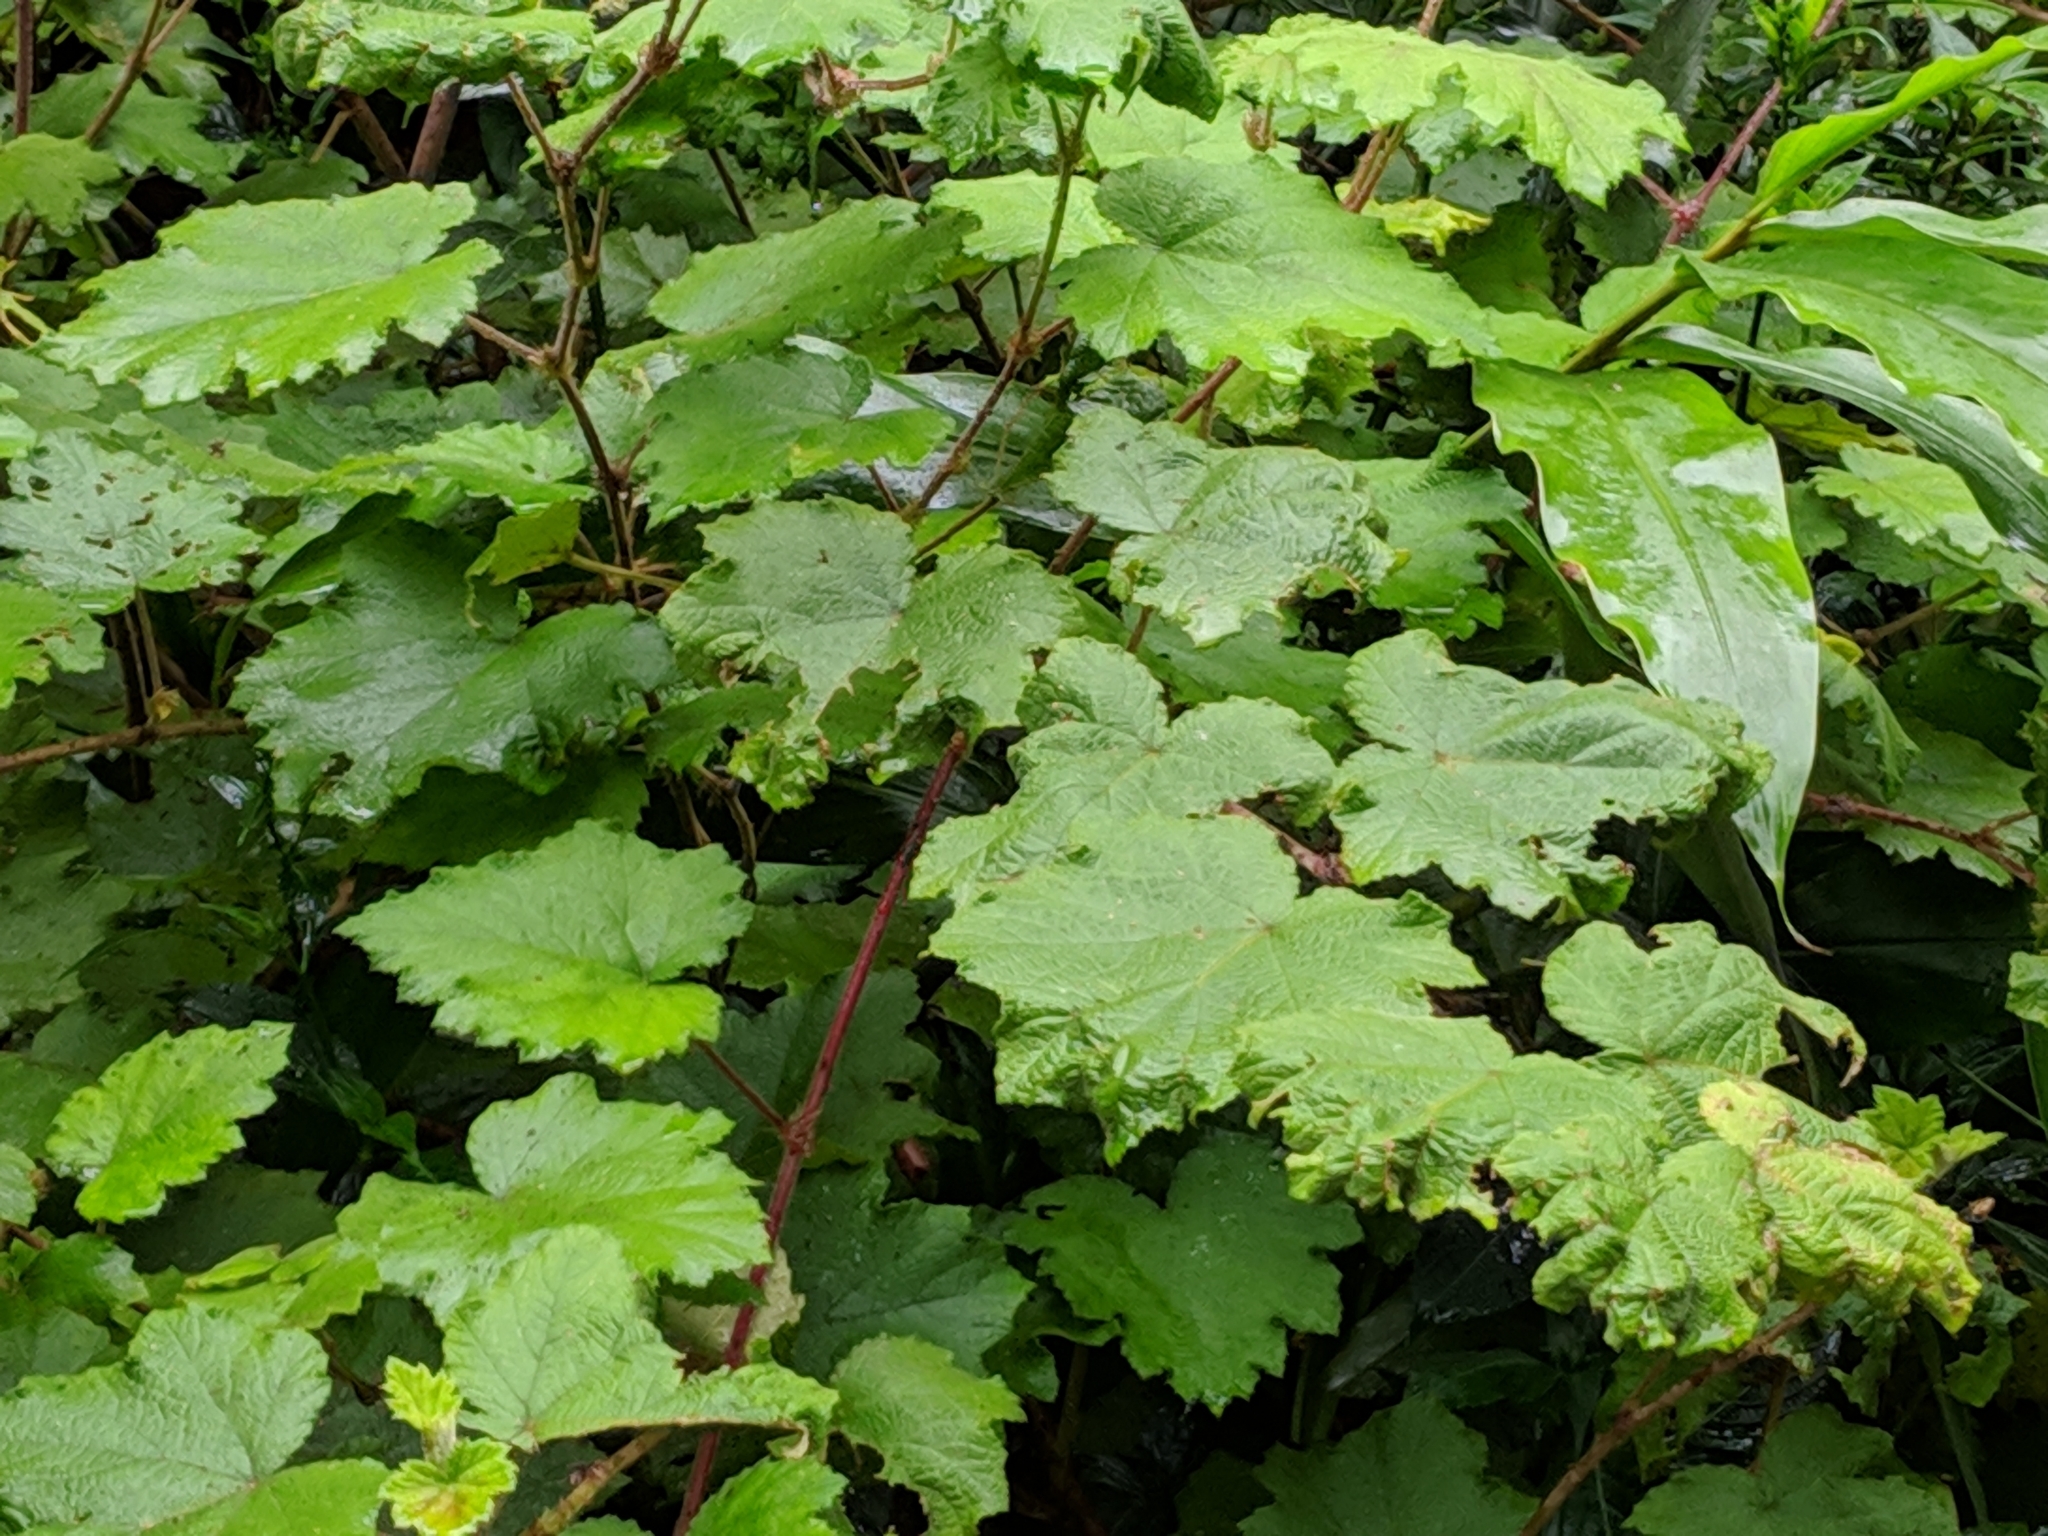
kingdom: Plantae
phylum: Tracheophyta
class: Magnoliopsida
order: Rosales
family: Rosaceae
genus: Rubus
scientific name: Rubus alceifolius
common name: Giant bramble
